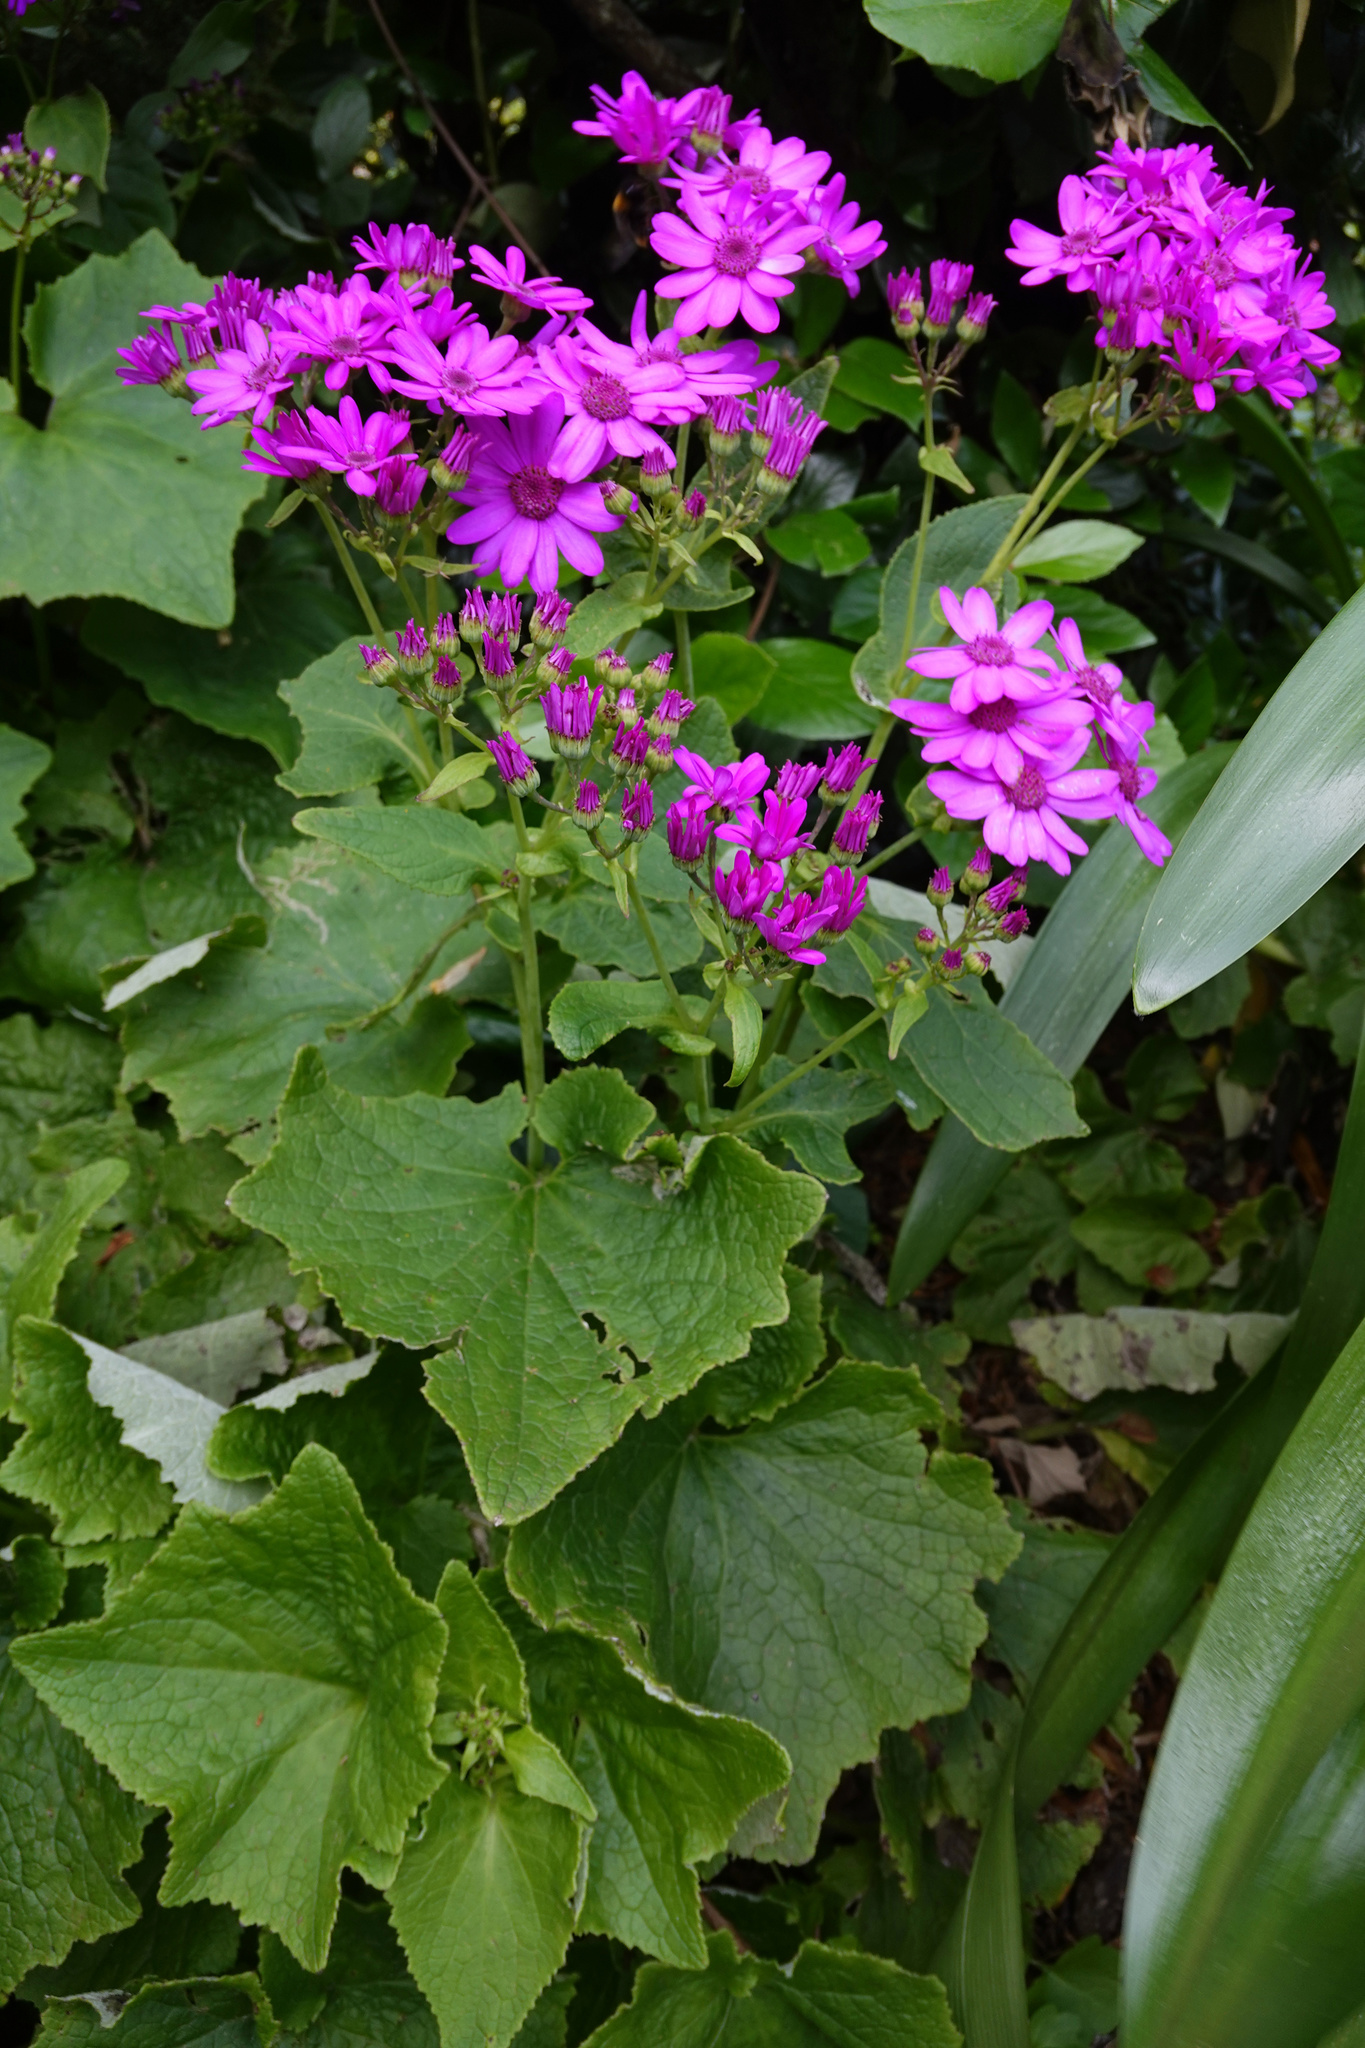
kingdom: Plantae
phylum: Tracheophyta
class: Magnoliopsida
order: Asterales
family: Asteraceae
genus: Pericallis
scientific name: Pericallis hybrida
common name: Cineraria
